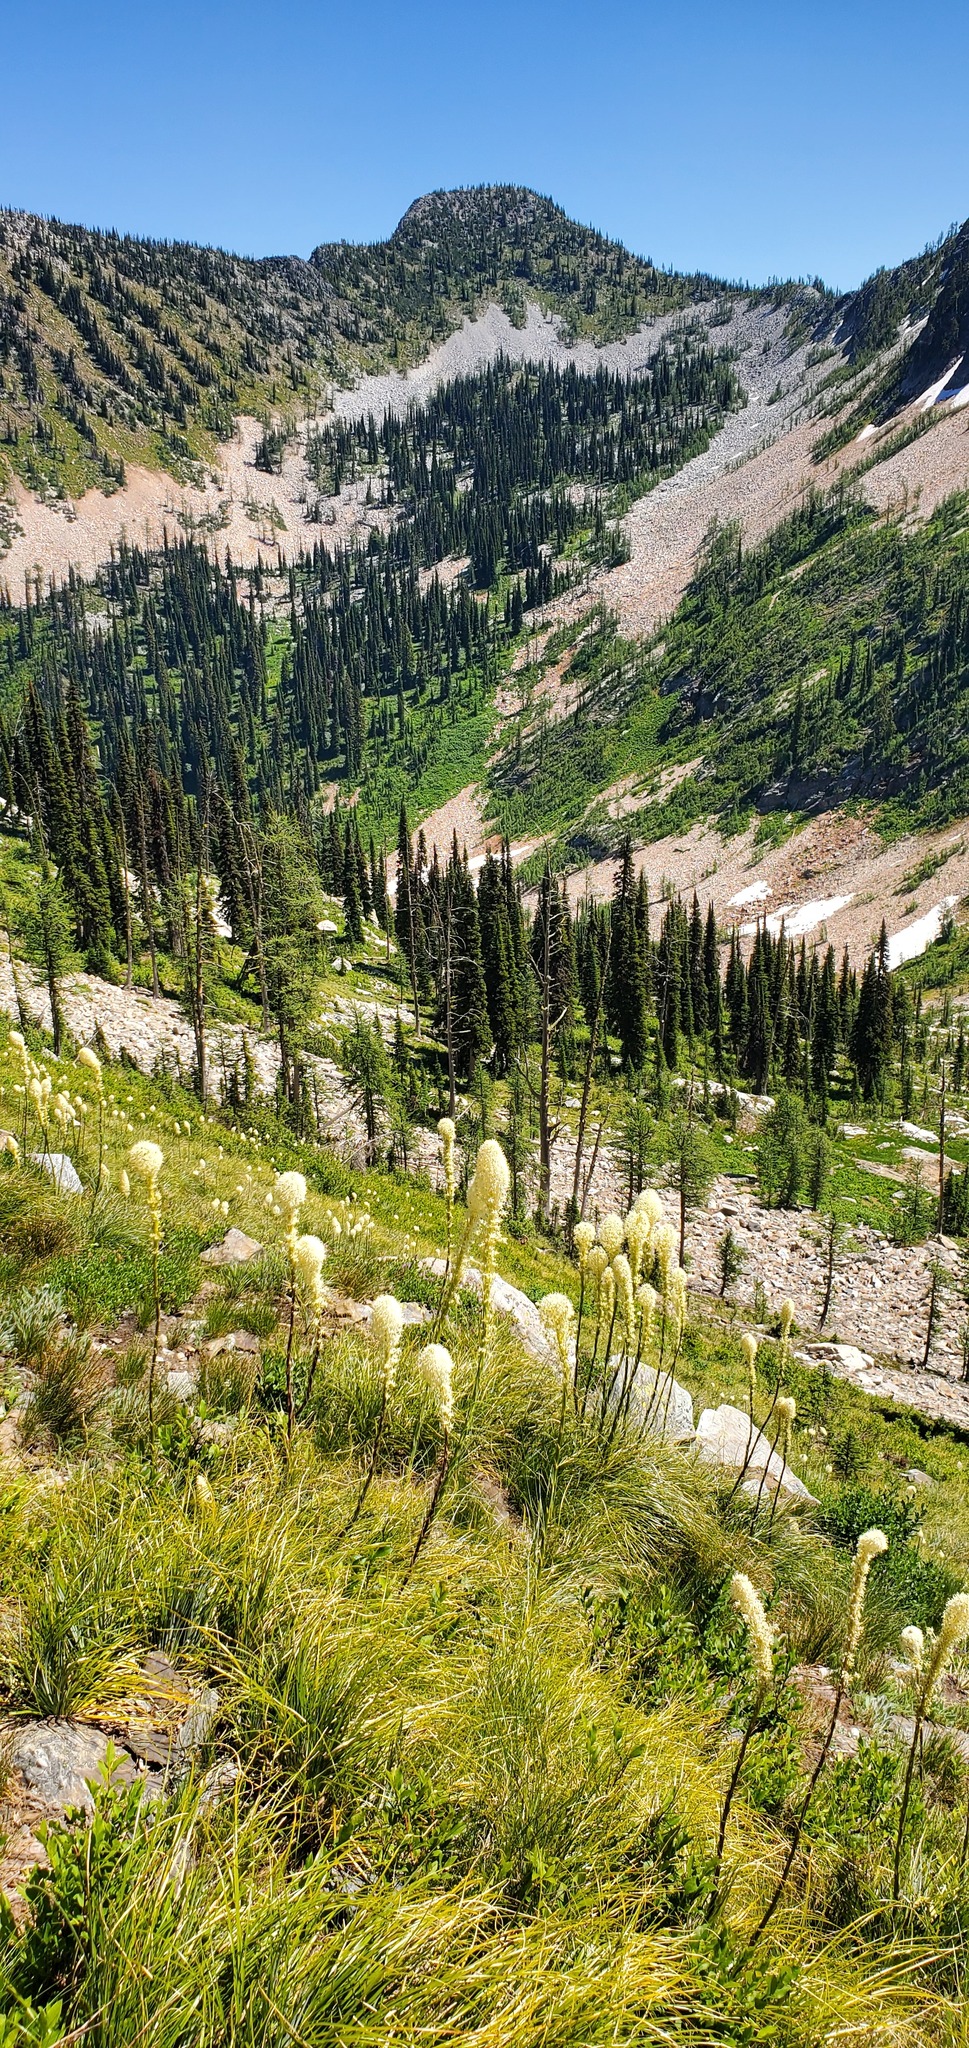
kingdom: Plantae
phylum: Tracheophyta
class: Liliopsida
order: Liliales
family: Melanthiaceae
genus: Xerophyllum
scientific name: Xerophyllum tenax
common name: Bear-grass
